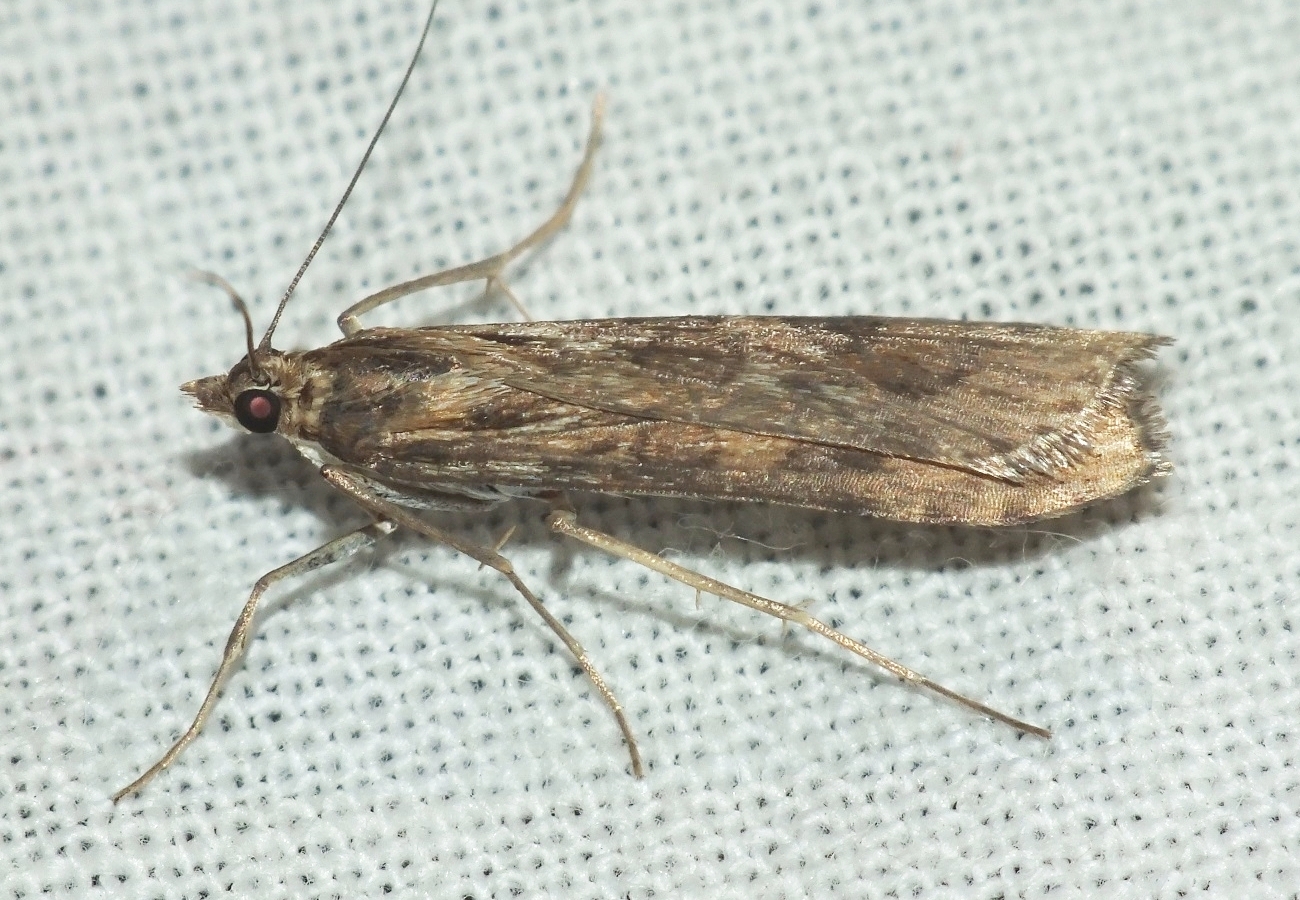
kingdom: Animalia
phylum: Arthropoda
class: Insecta
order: Lepidoptera
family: Crambidae
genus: Nomophila
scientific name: Nomophila noctuella
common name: Rush veneer
